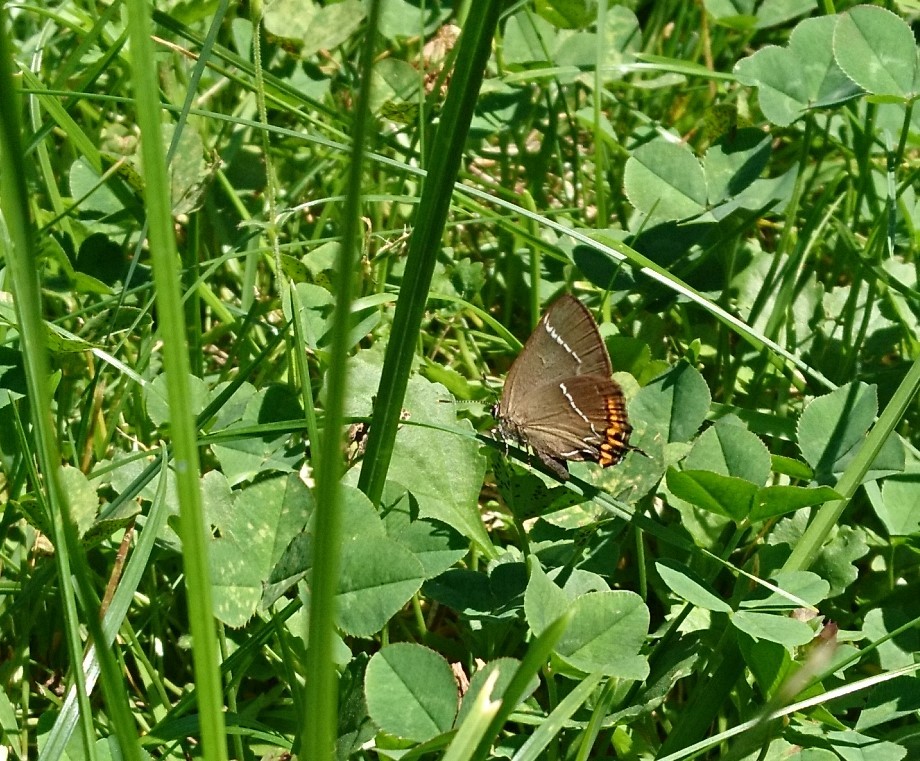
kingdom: Animalia
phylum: Arthropoda
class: Insecta
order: Lepidoptera
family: Lycaenidae
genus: Satyrium
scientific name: Satyrium w-album
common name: White-letter hairstreak
